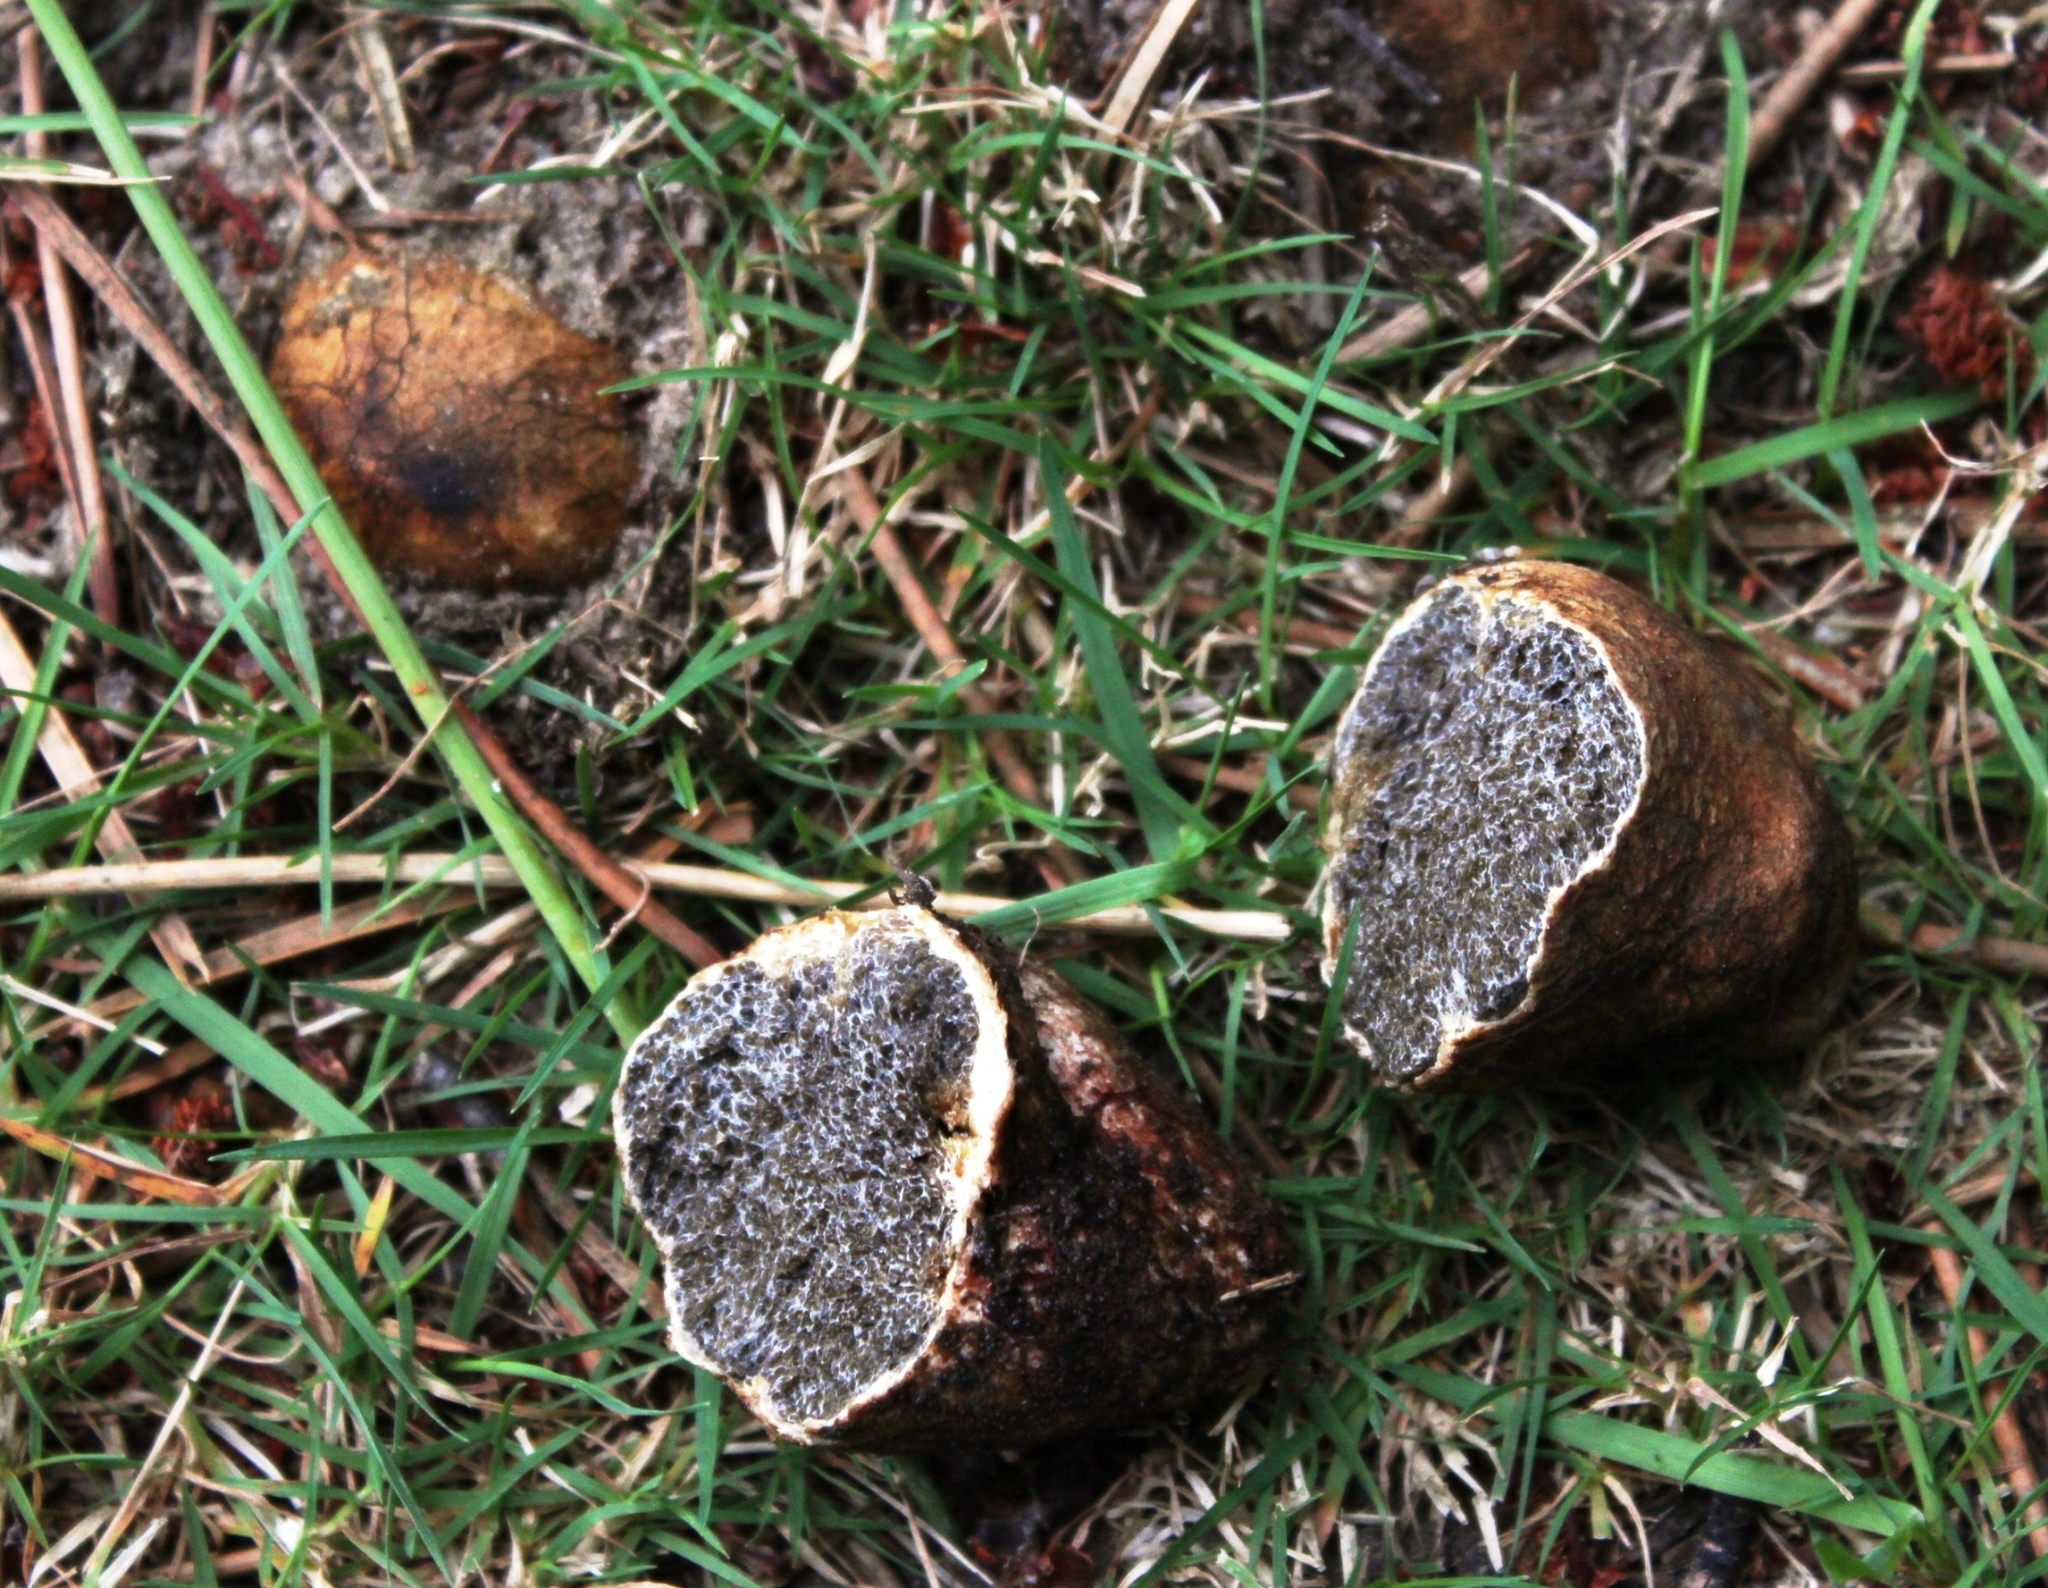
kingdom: Fungi
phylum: Basidiomycota
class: Agaricomycetes
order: Boletales
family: Sclerodermataceae
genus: Pisolithus
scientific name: Pisolithus tinctorius
